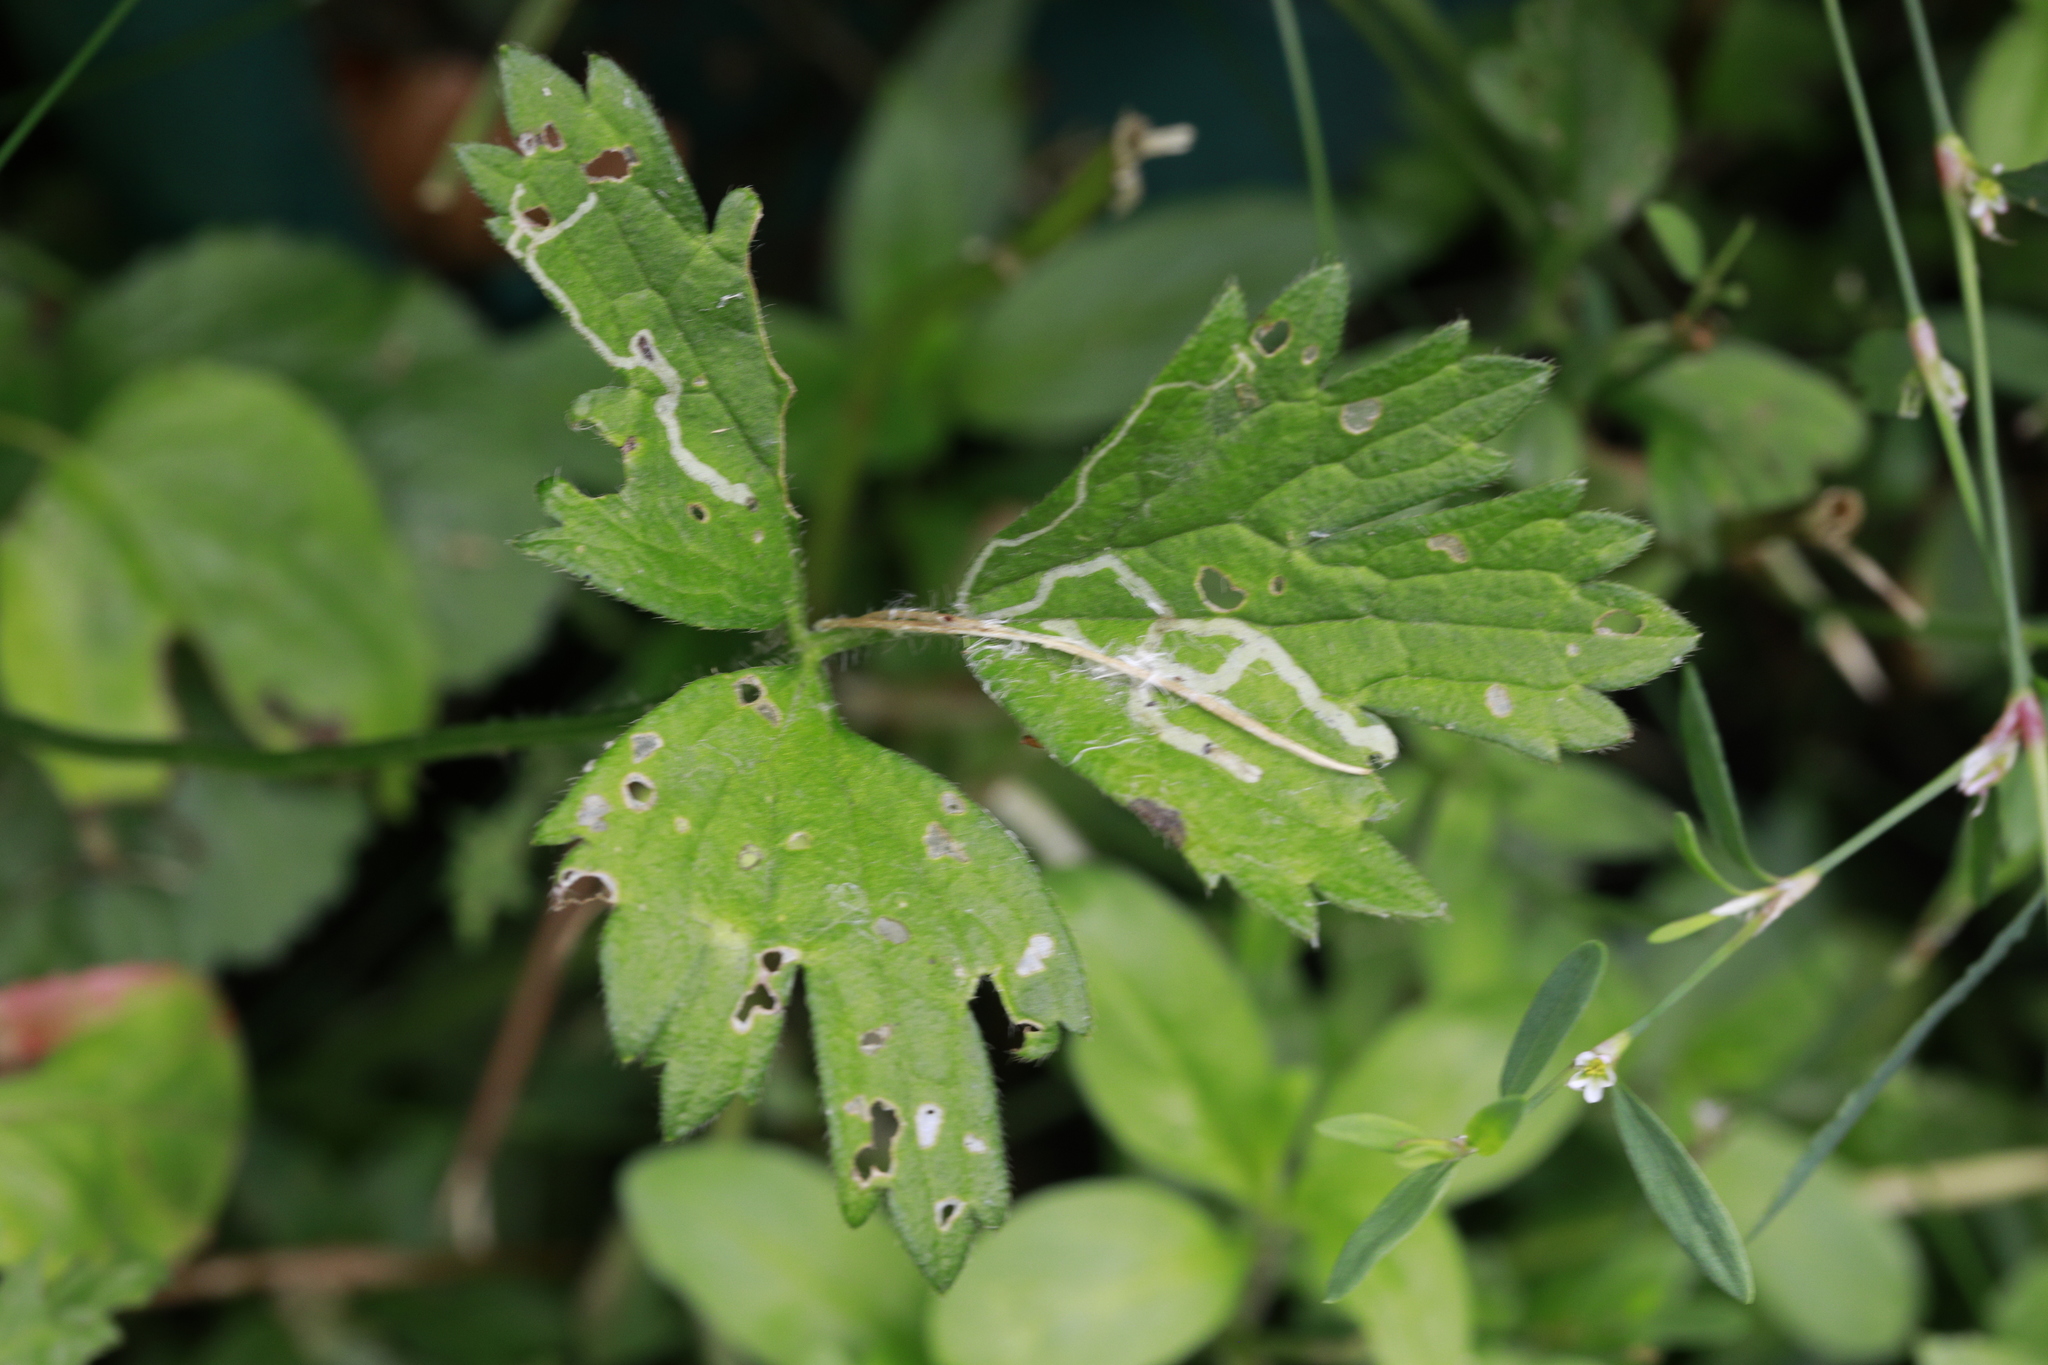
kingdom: Plantae
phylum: Tracheophyta
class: Magnoliopsida
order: Ranunculales
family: Ranunculaceae
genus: Ranunculus
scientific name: Ranunculus repens
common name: Creeping buttercup
